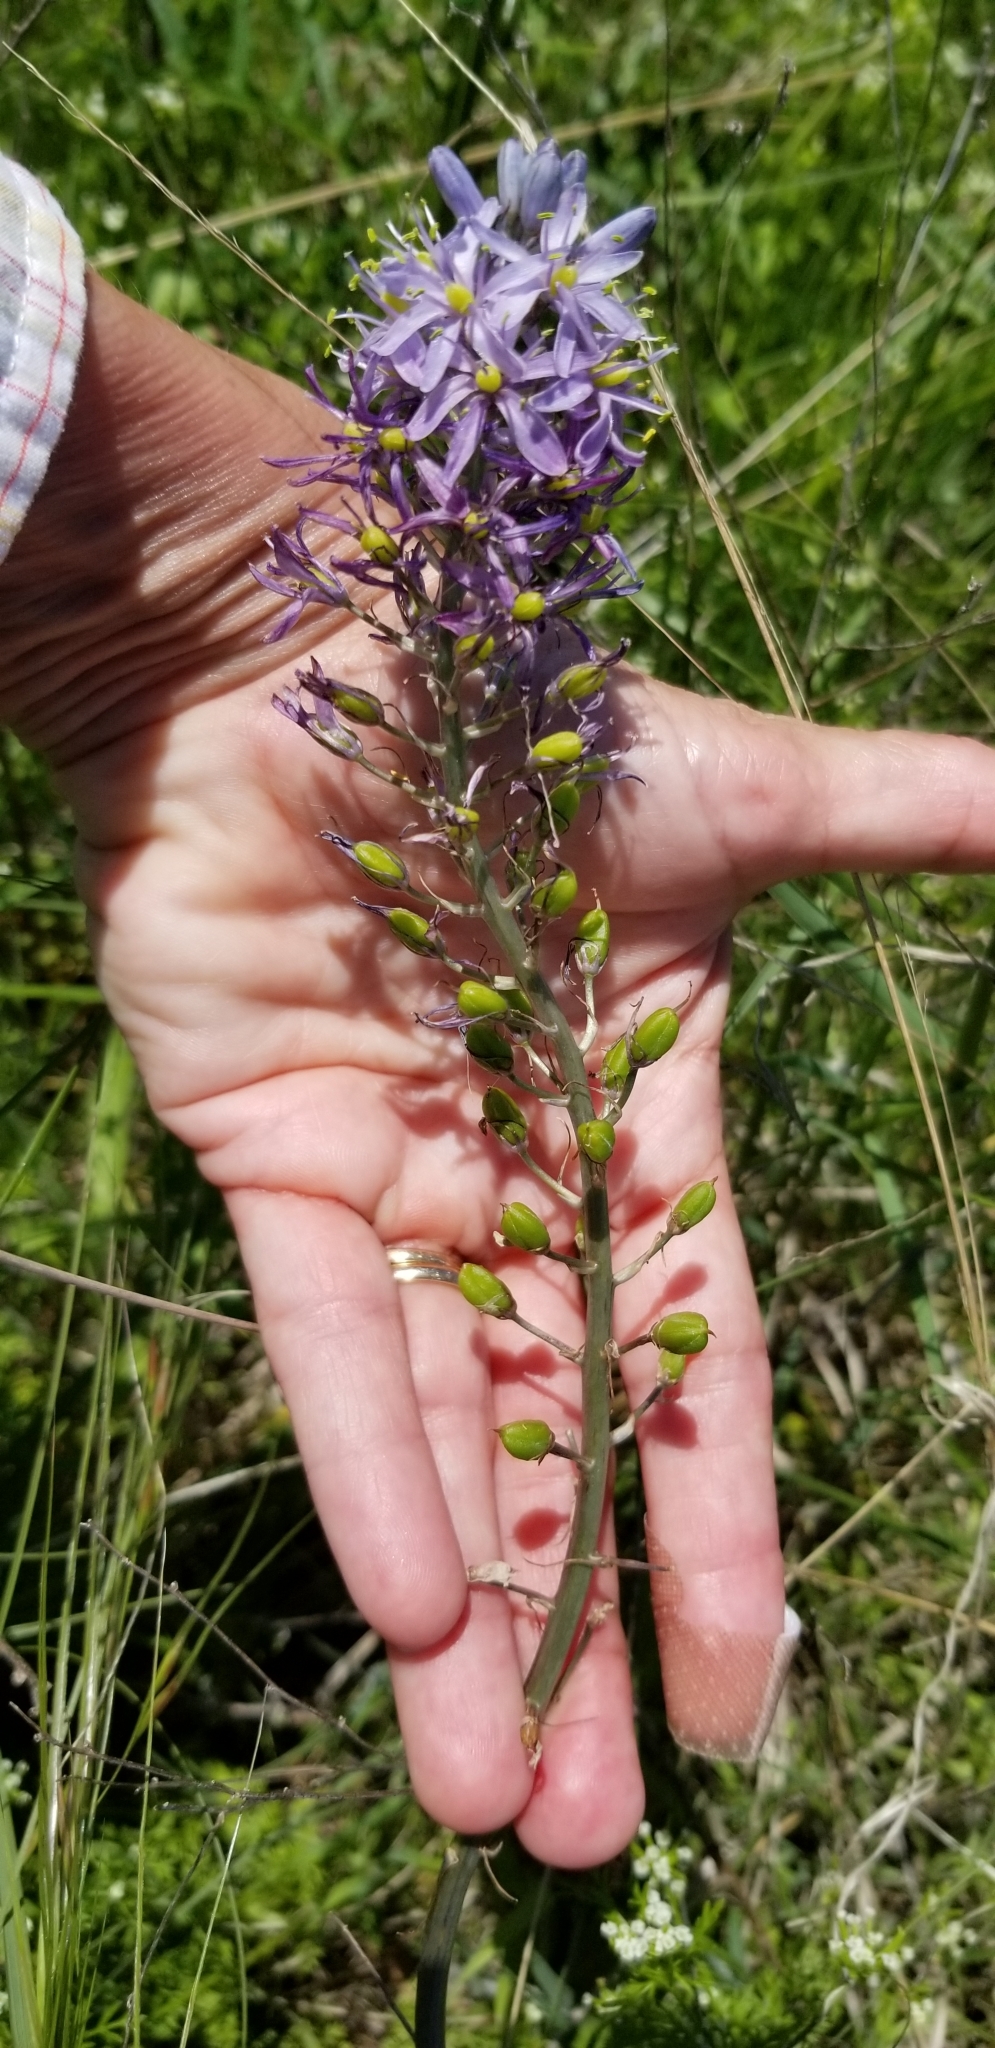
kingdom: Plantae
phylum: Tracheophyta
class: Liliopsida
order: Asparagales
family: Asparagaceae
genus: Camassia
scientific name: Camassia scilloides
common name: Wild hyacinth
